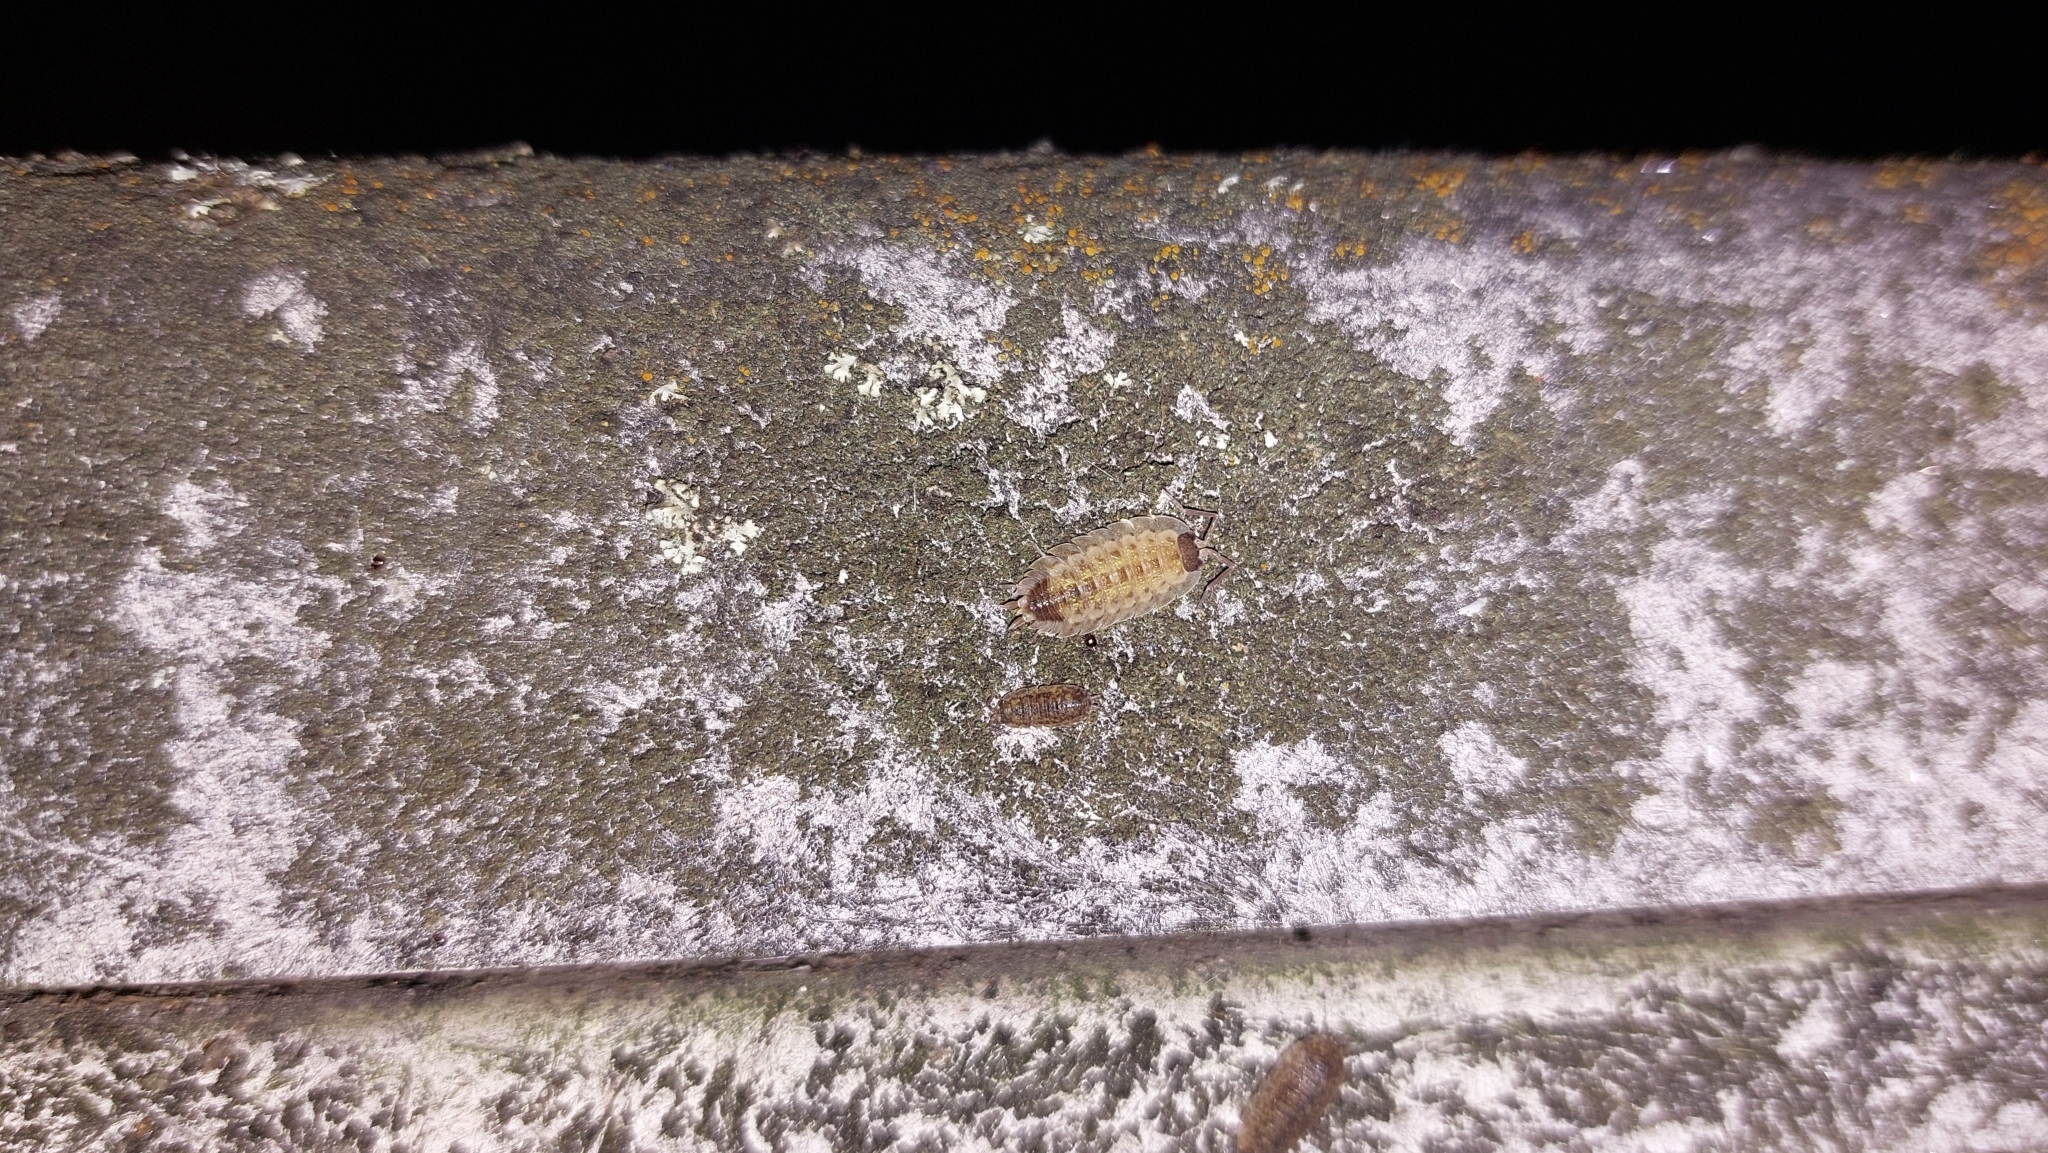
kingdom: Animalia
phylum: Arthropoda
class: Malacostraca
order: Isopoda
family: Porcellionidae
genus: Porcellio
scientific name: Porcellio spinicornis
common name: Painted woodlouse
